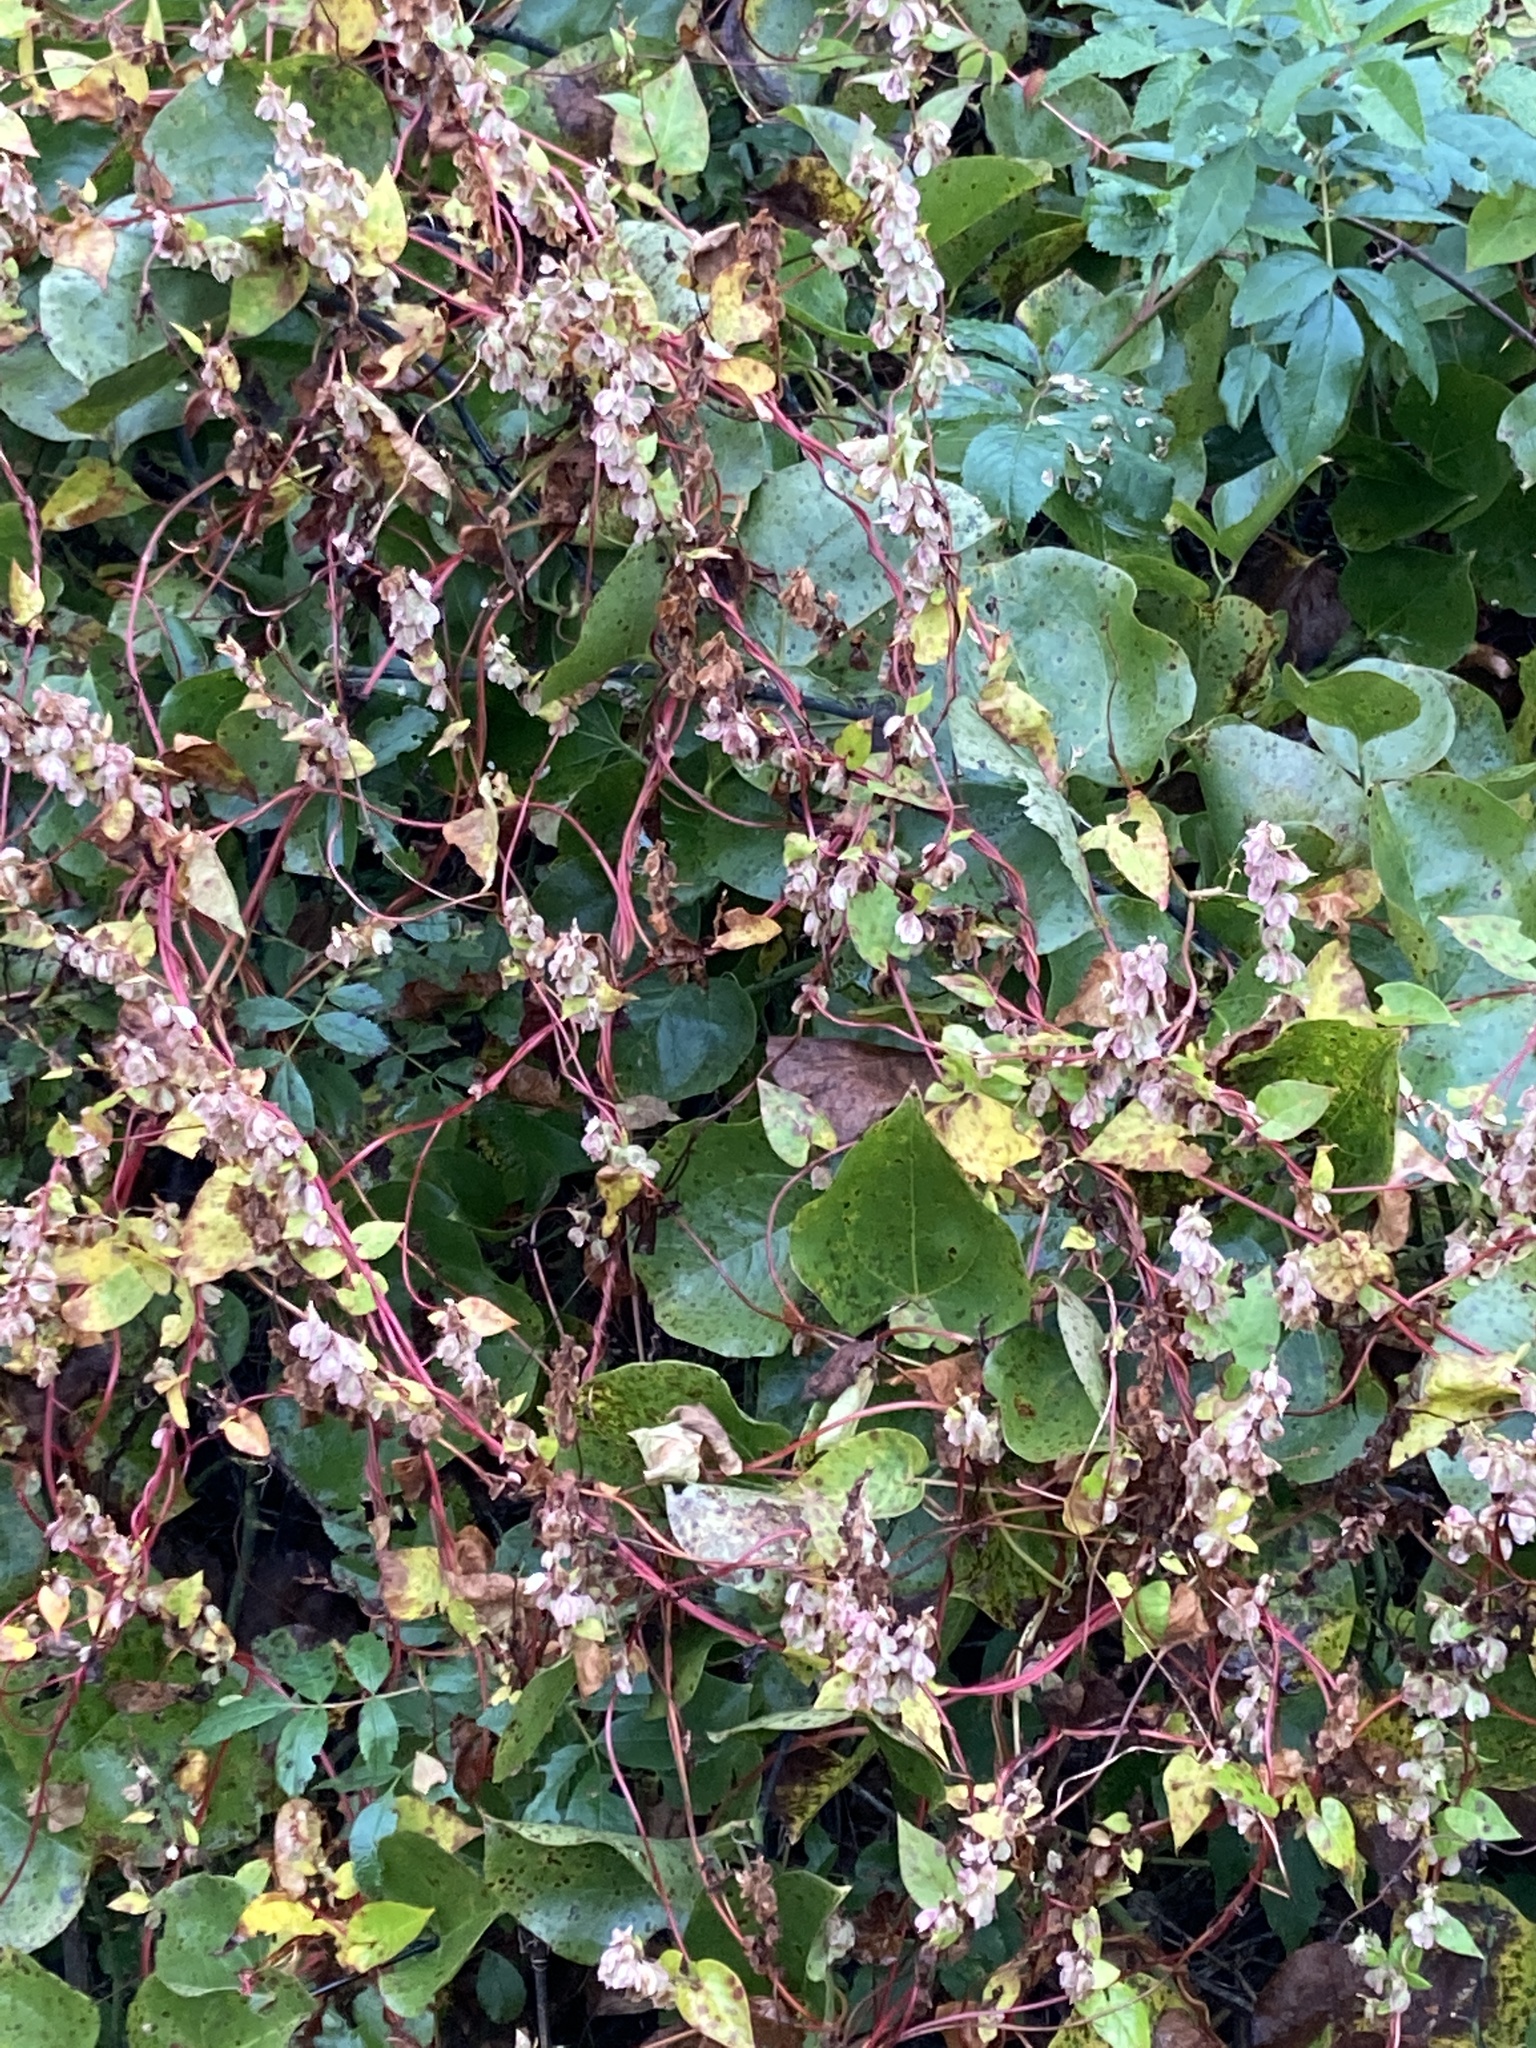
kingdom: Plantae
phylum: Tracheophyta
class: Magnoliopsida
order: Caryophyllales
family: Polygonaceae
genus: Fallopia
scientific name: Fallopia scandens
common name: Climbing false buckwheat
